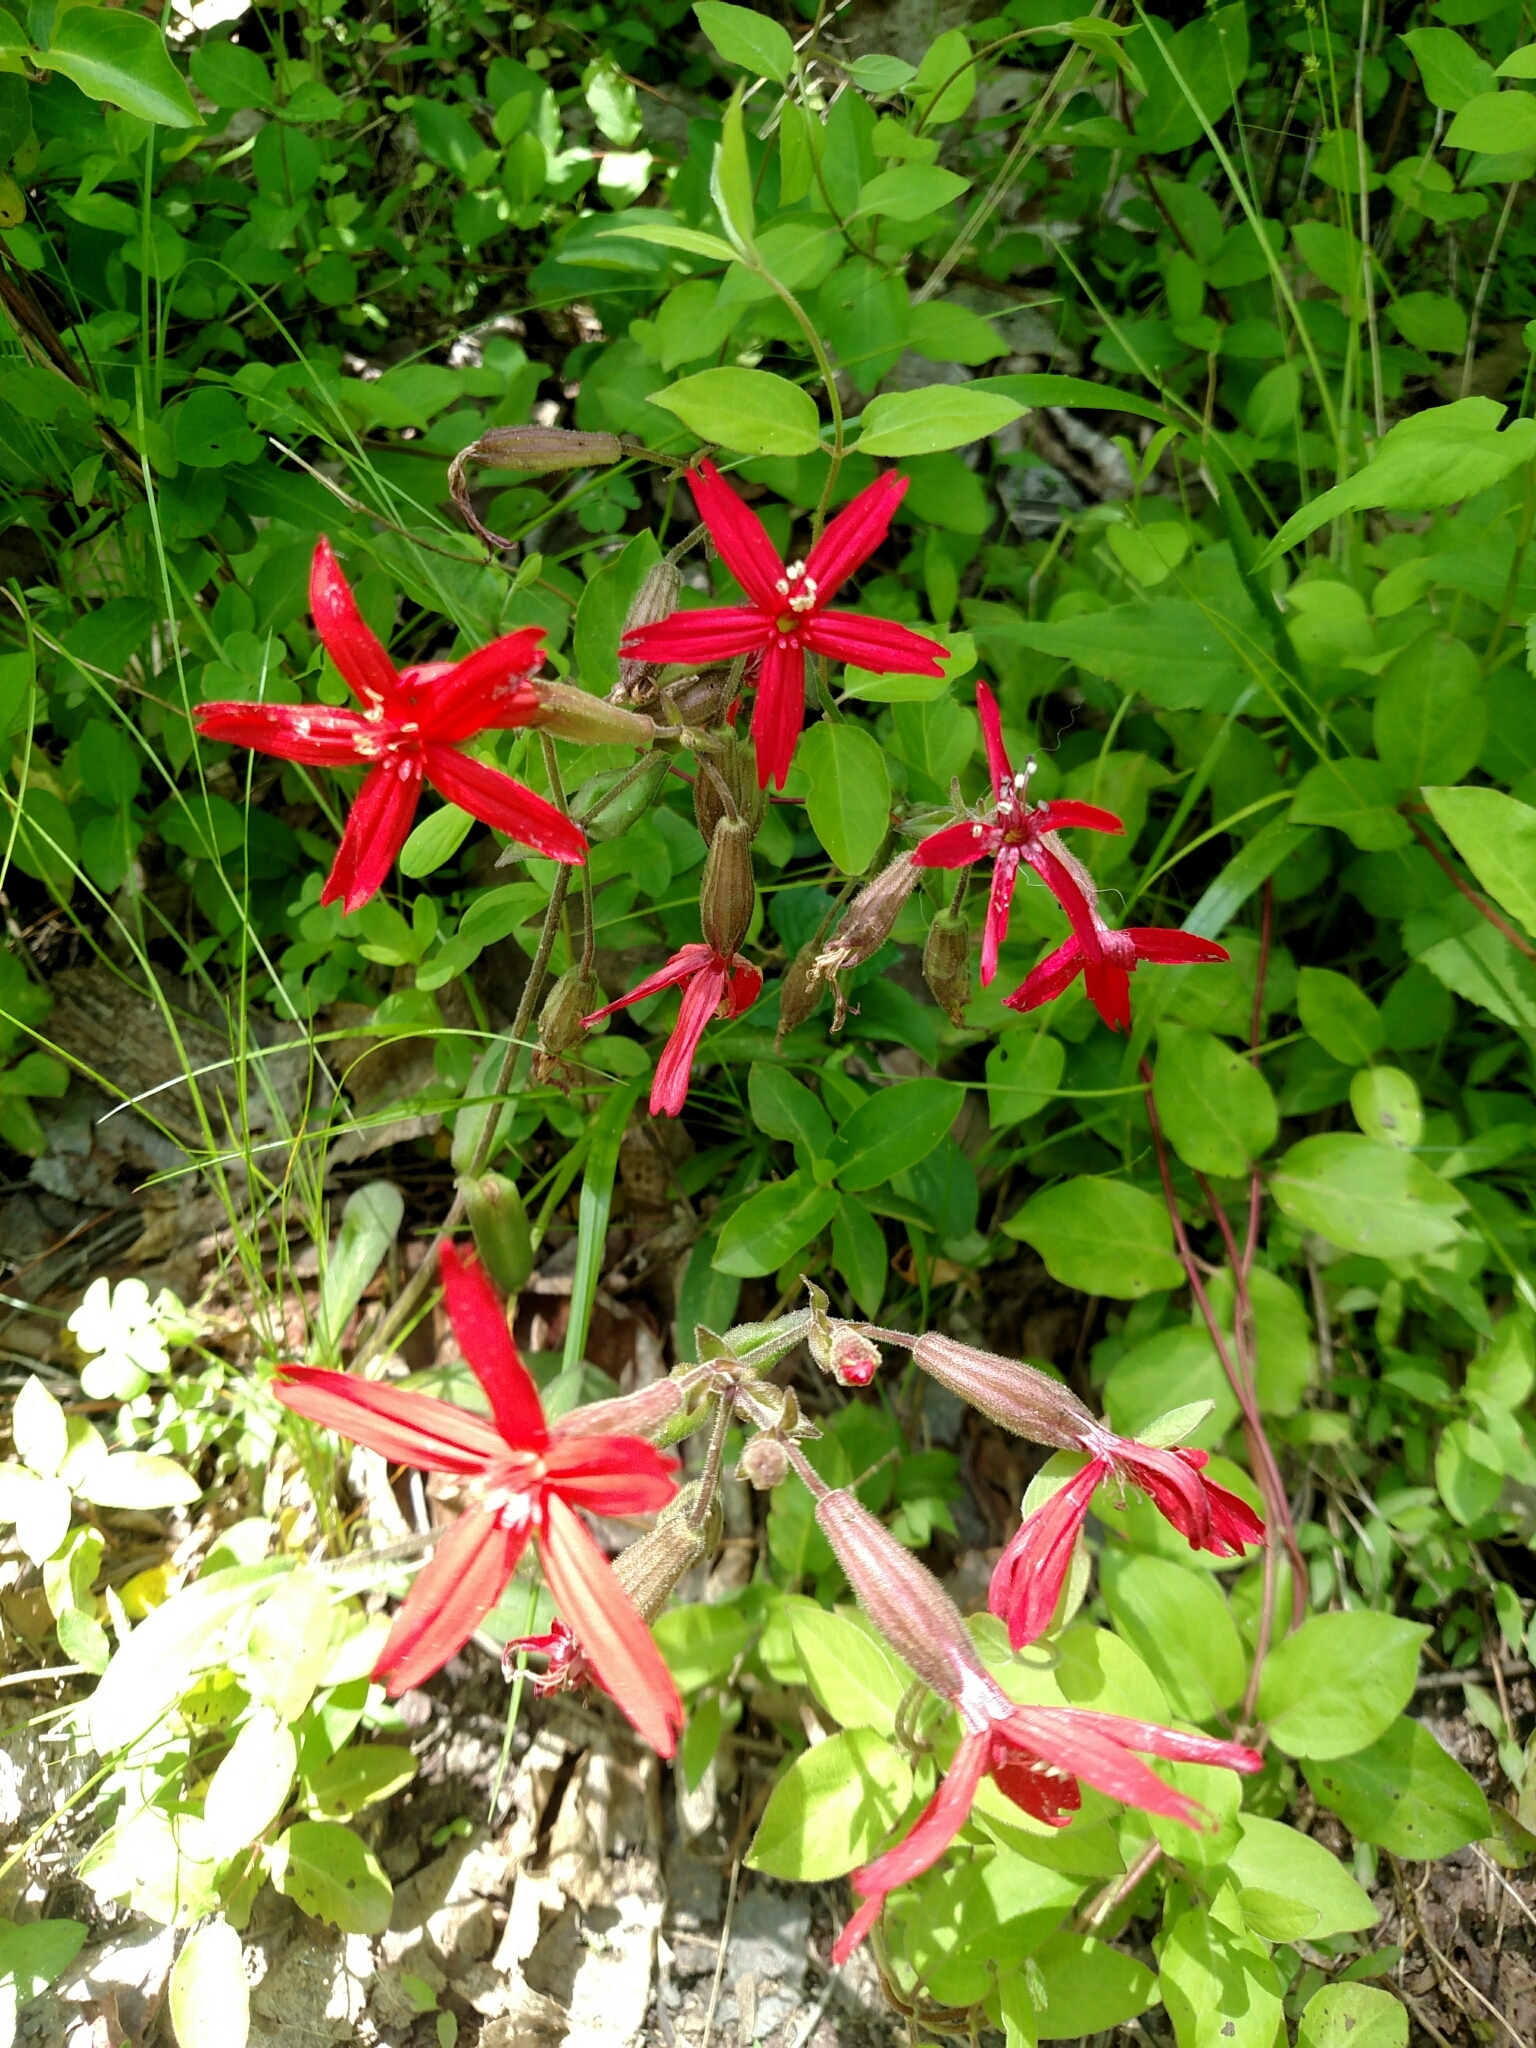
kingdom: Plantae
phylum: Tracheophyta
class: Magnoliopsida
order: Caryophyllales
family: Caryophyllaceae
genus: Silene
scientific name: Silene virginica
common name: Fire-pink
